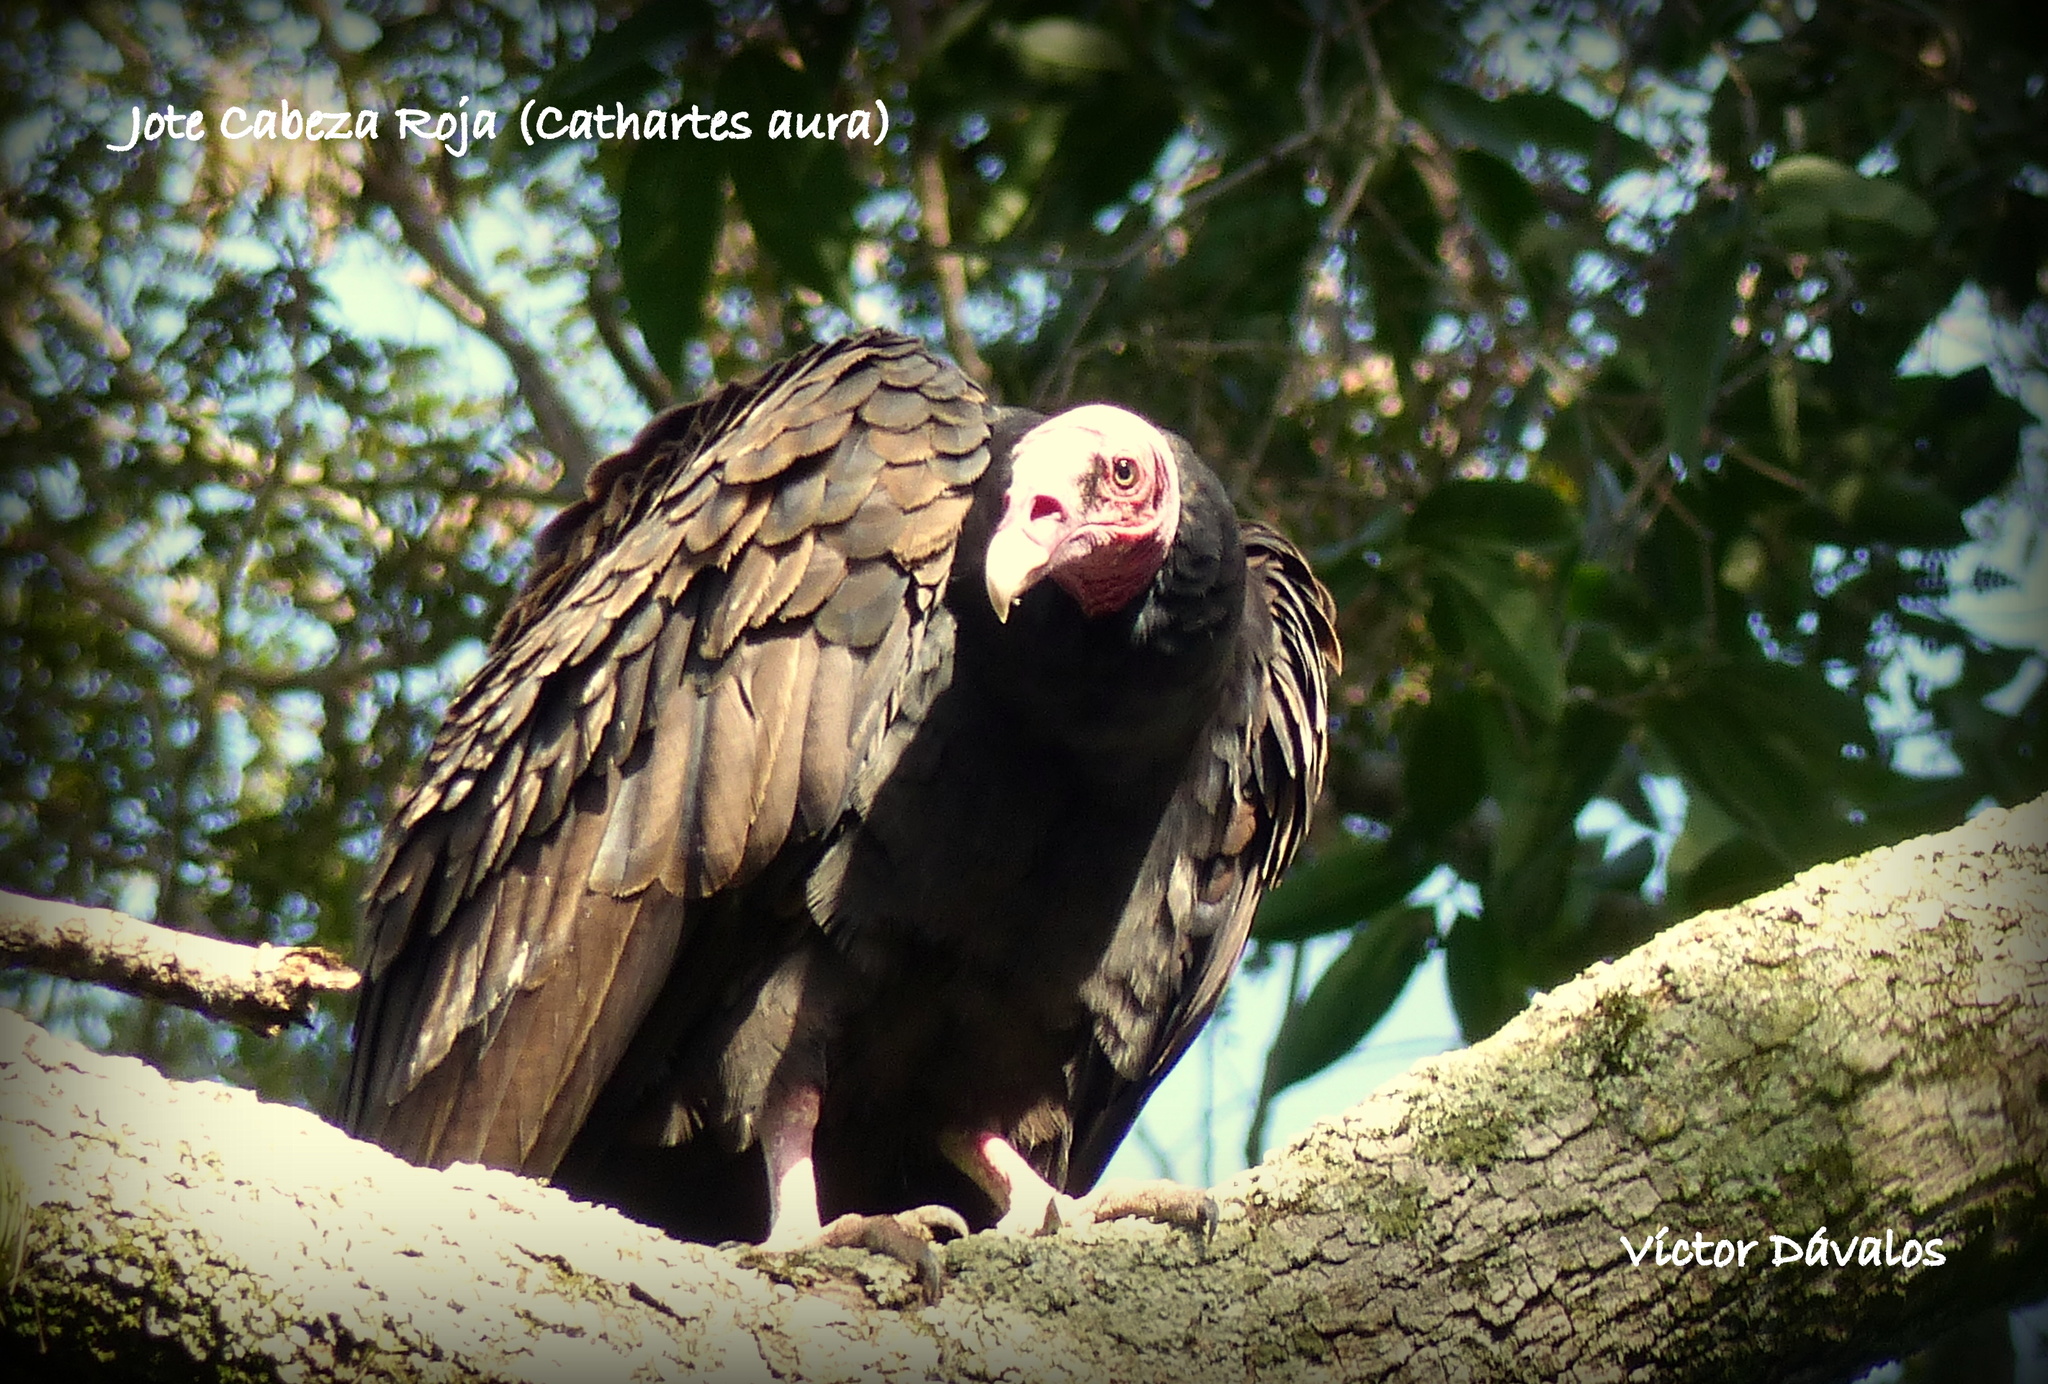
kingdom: Animalia
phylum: Chordata
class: Aves
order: Accipitriformes
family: Cathartidae
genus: Cathartes
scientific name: Cathartes aura
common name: Turkey vulture
